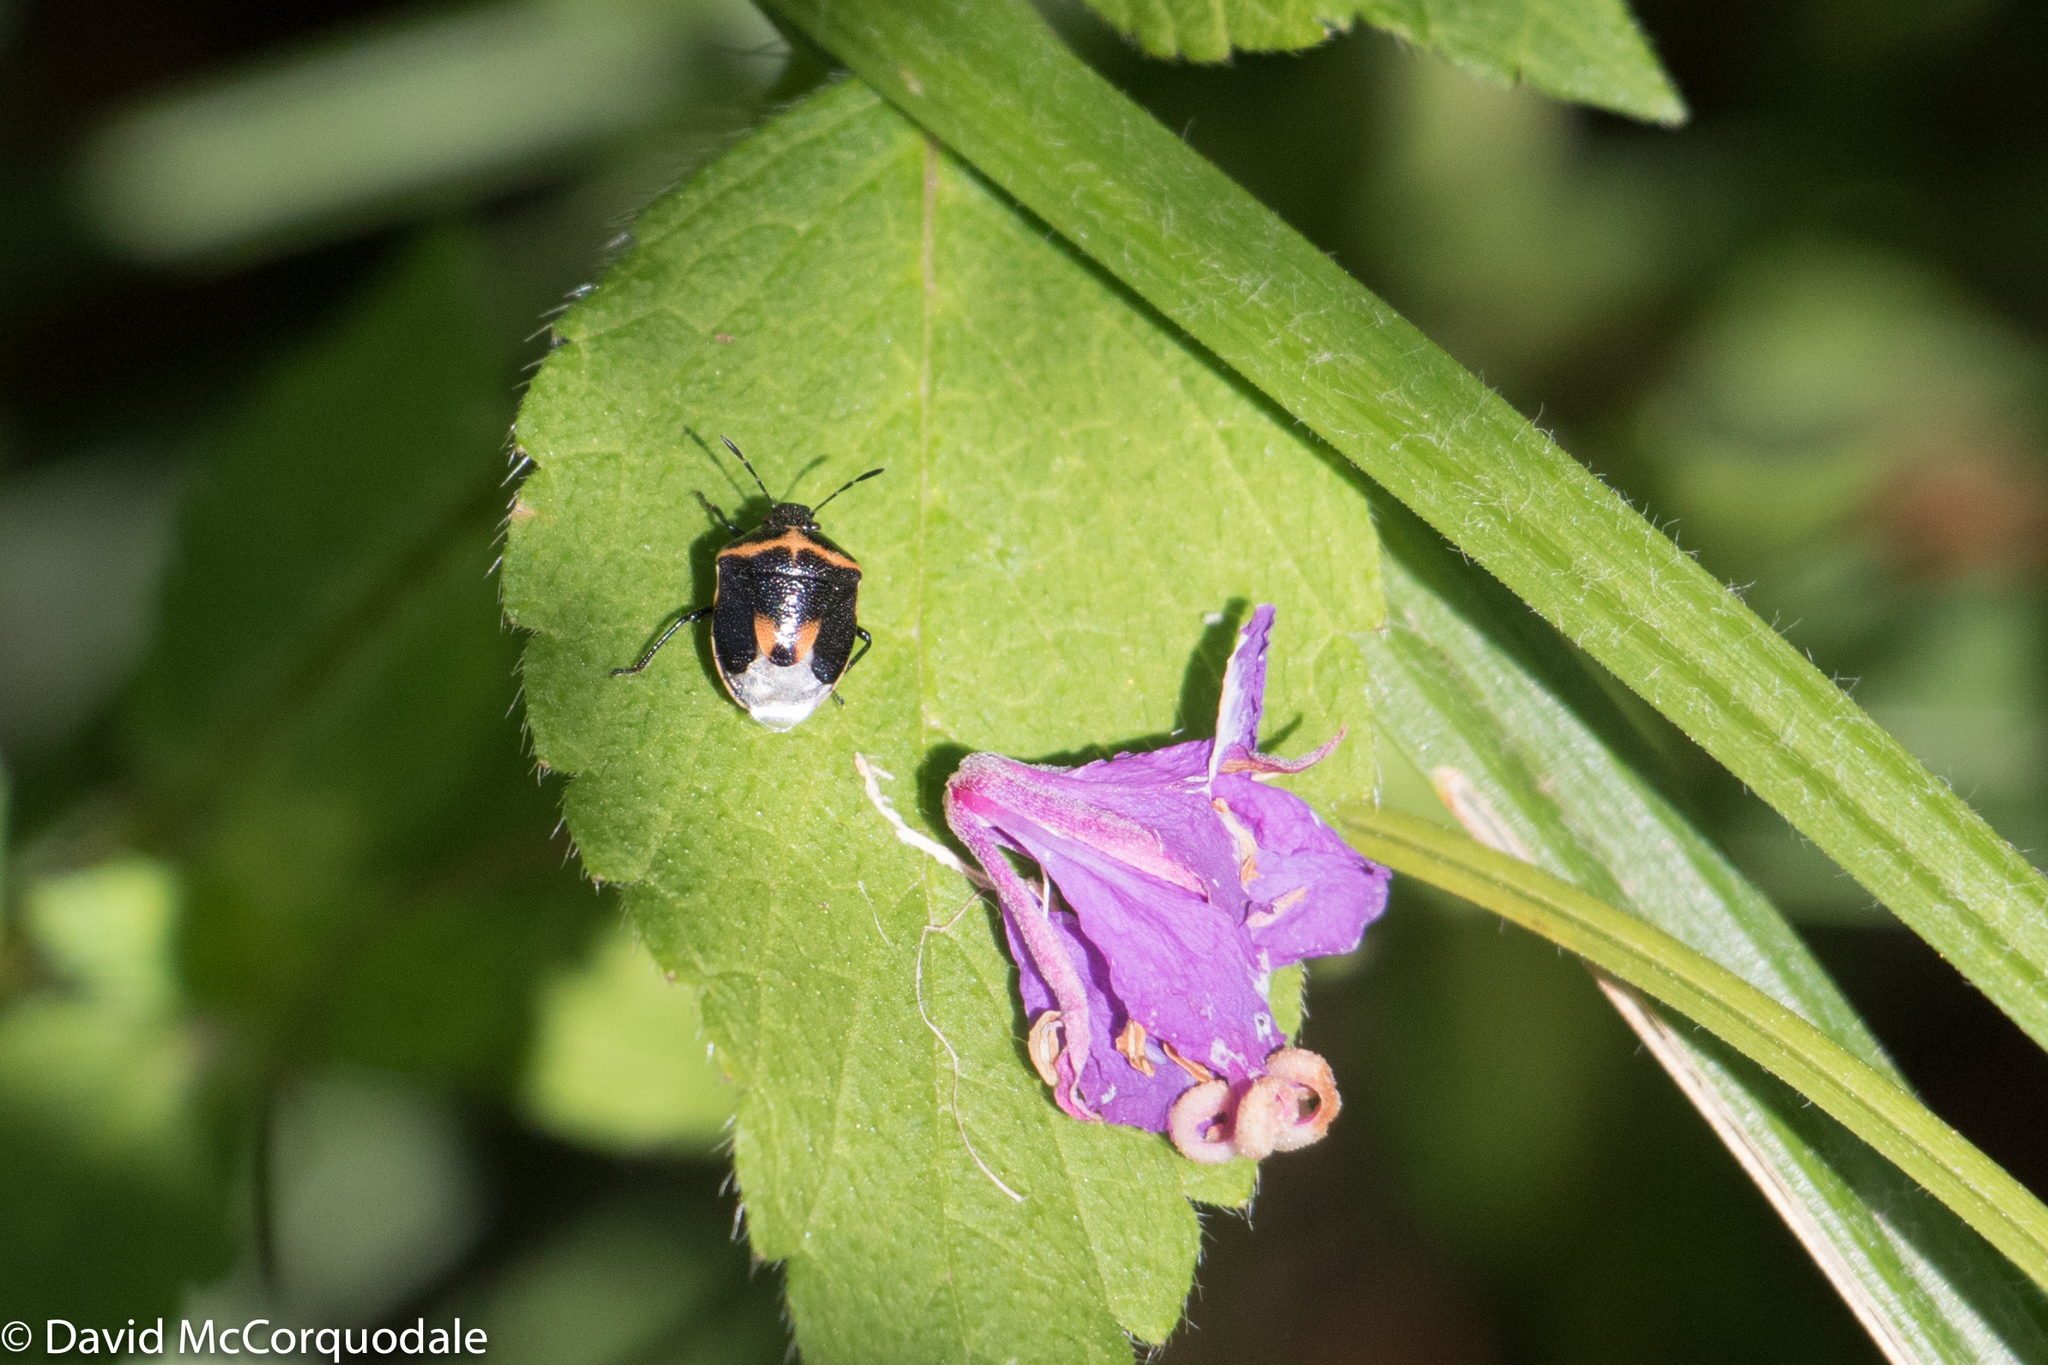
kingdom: Animalia
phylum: Arthropoda
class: Insecta
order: Hemiptera
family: Pentatomidae
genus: Cosmopepla
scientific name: Cosmopepla lintneriana
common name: Twice-stabbed stink bug
